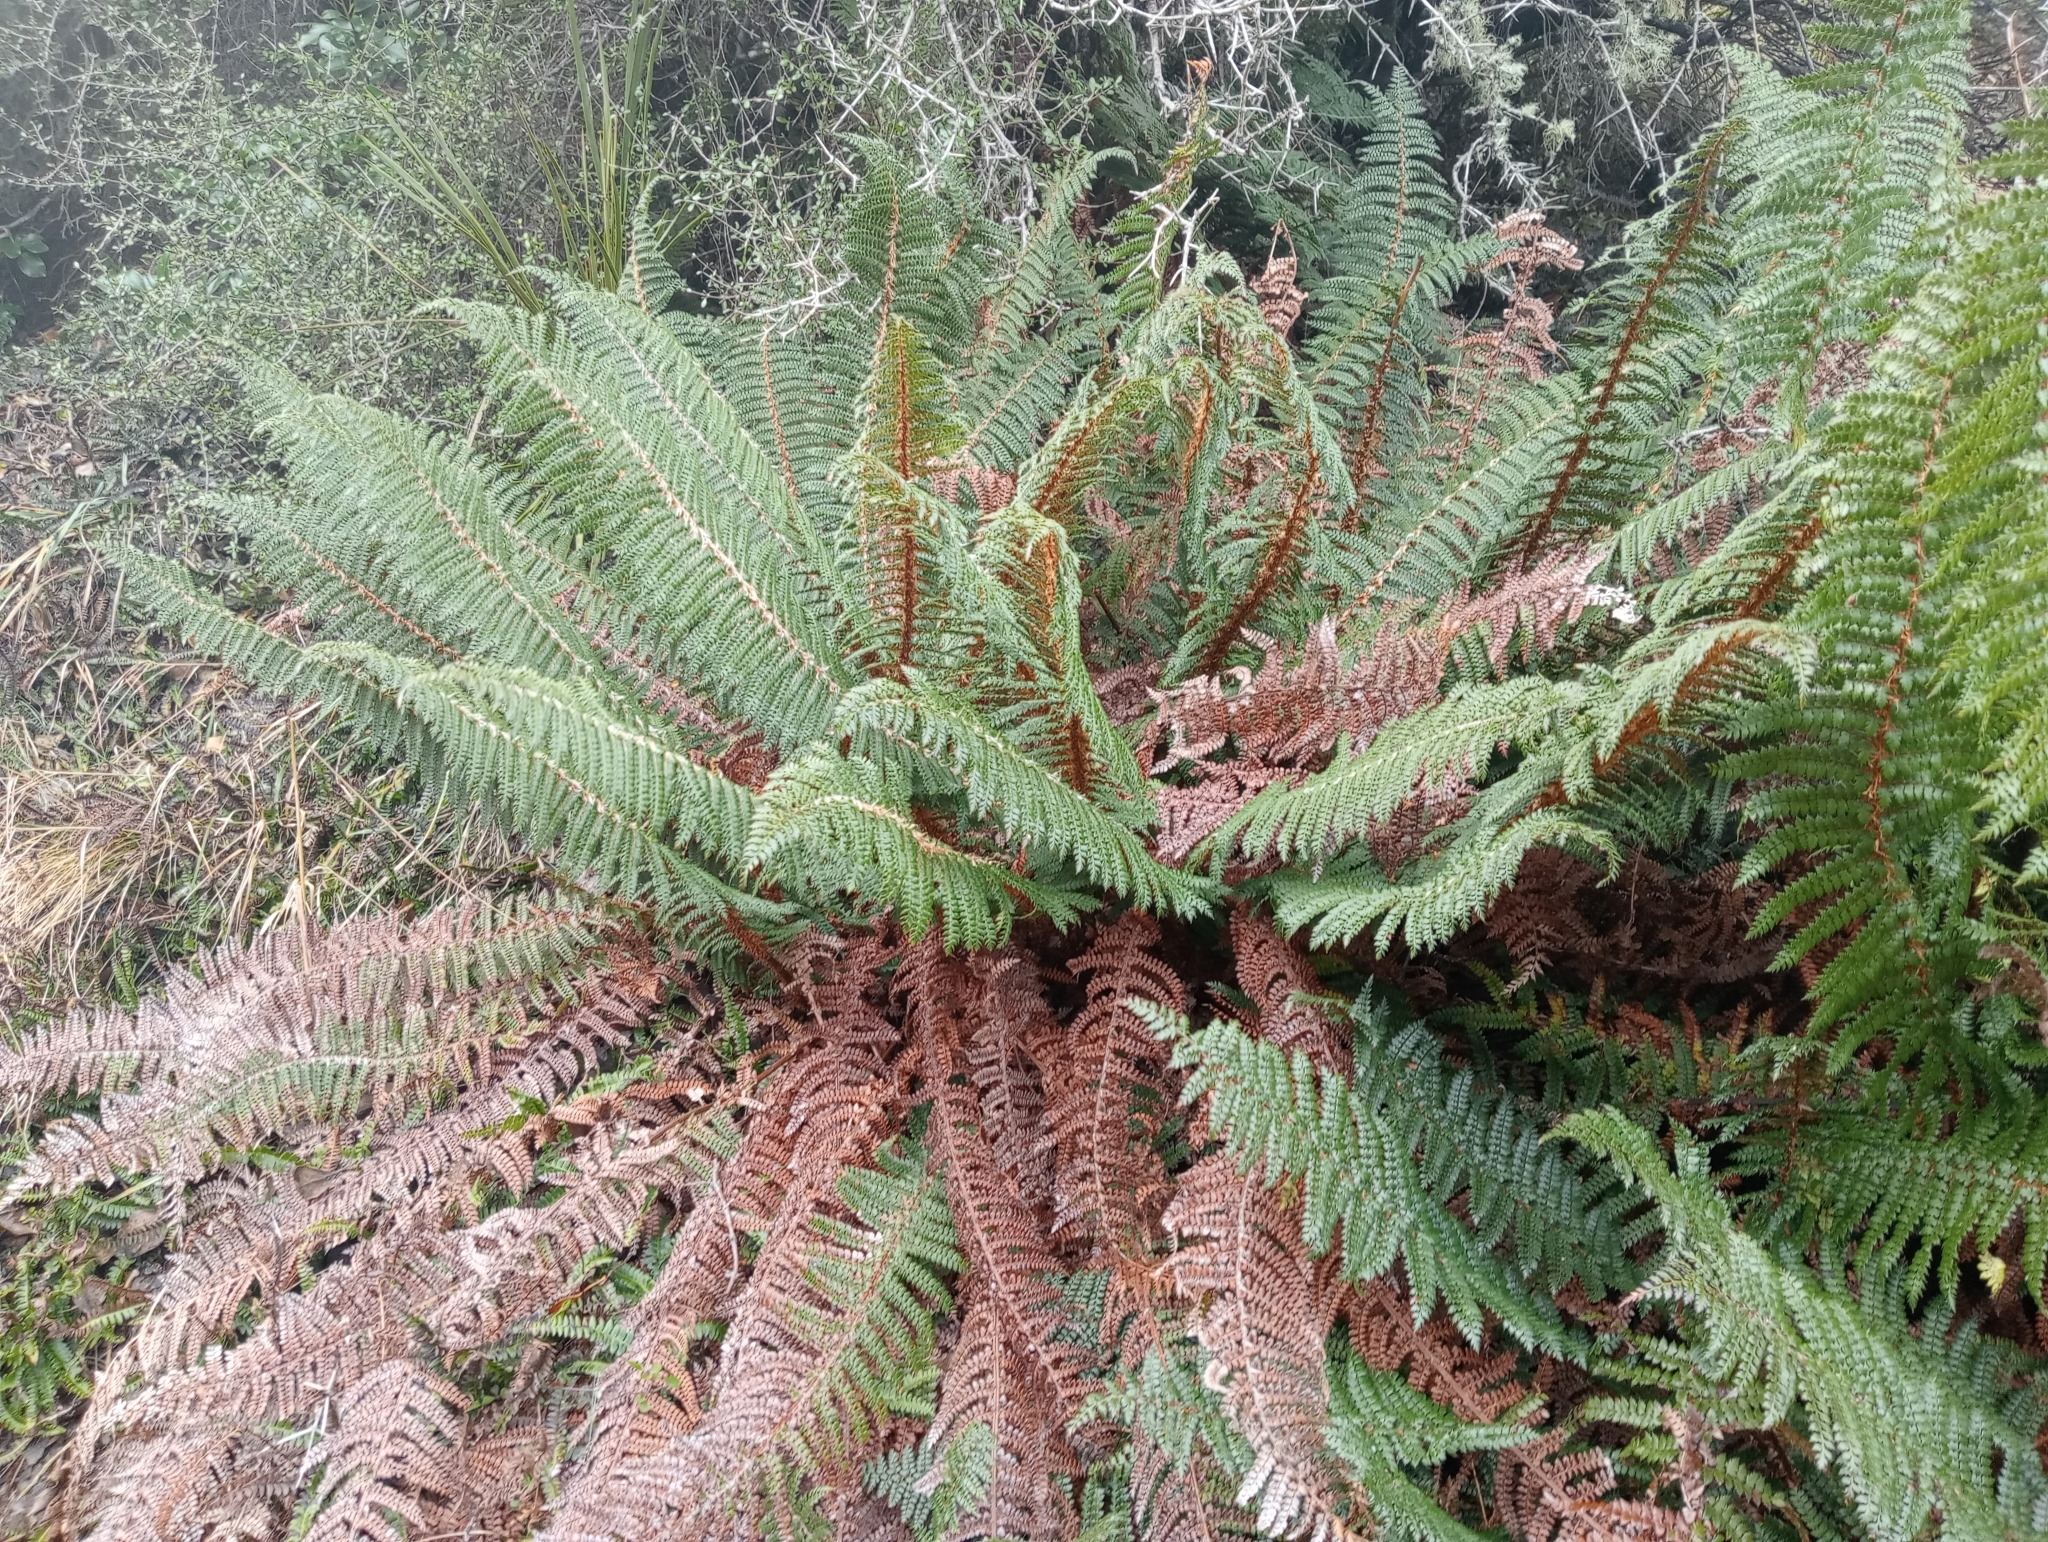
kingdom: Plantae
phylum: Tracheophyta
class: Polypodiopsida
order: Polypodiales
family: Dryopteridaceae
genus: Polystichum
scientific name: Polystichum vestitum
